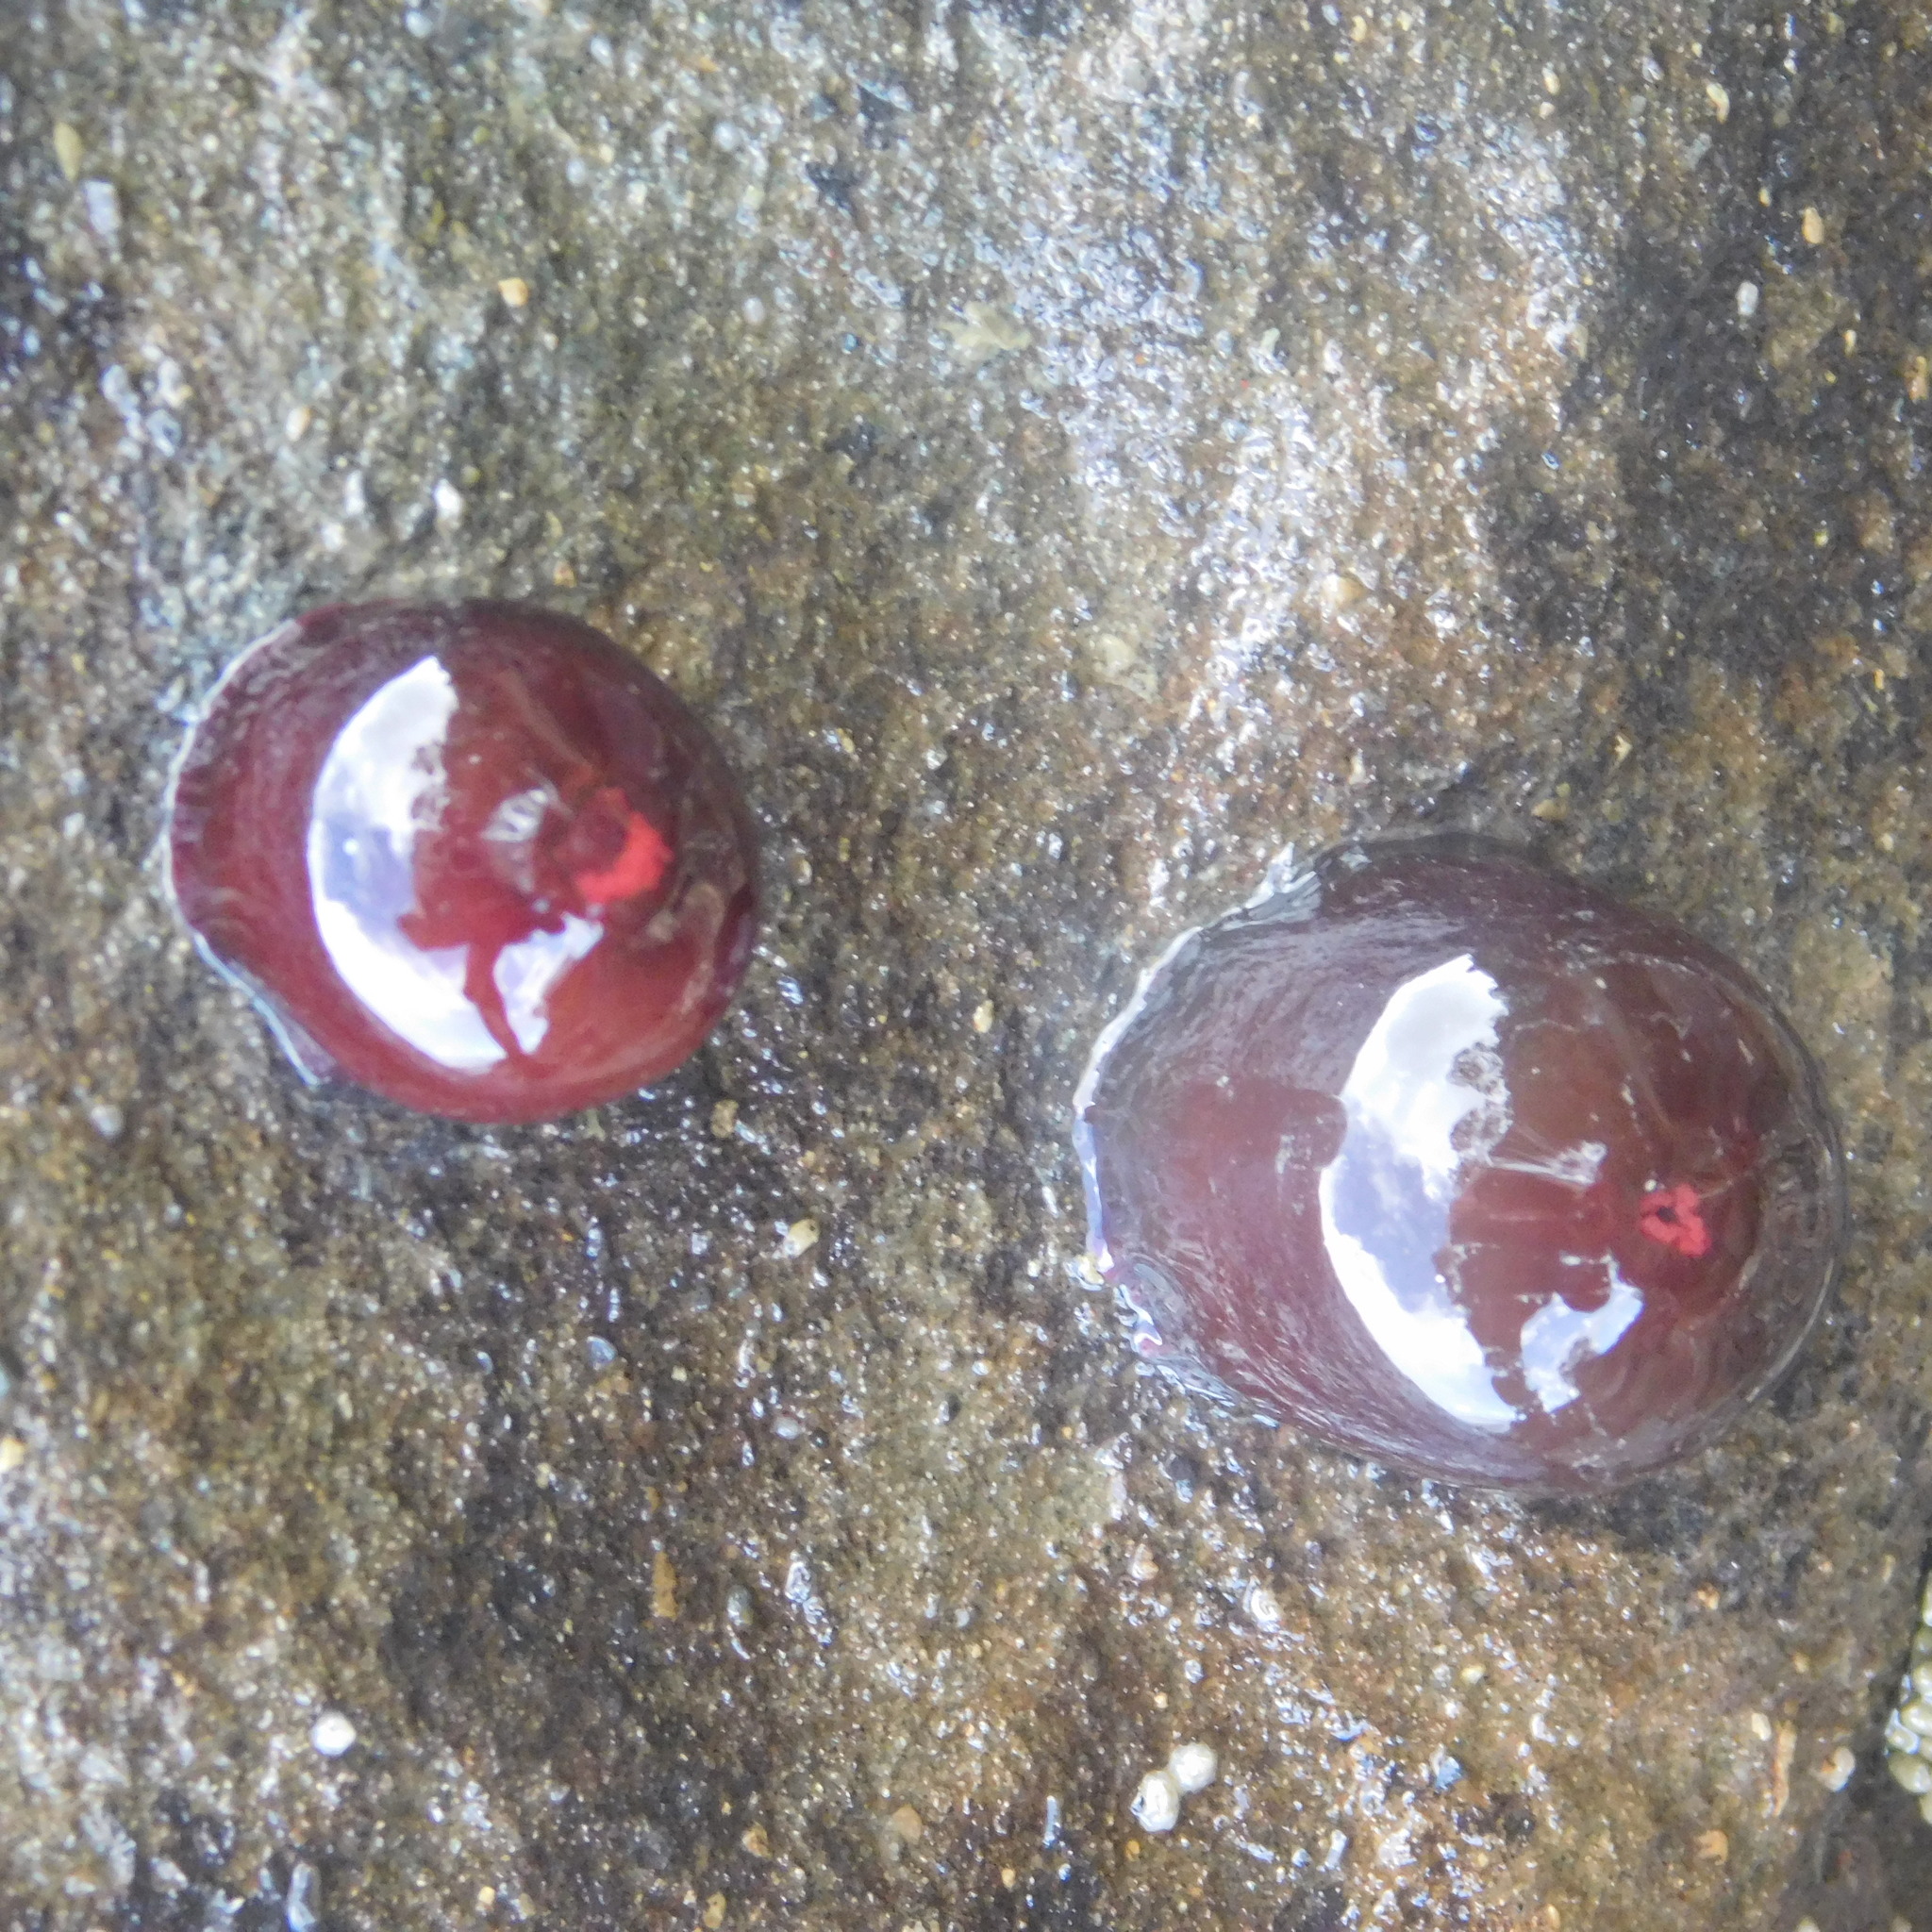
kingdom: Animalia
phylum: Cnidaria
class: Anthozoa
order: Actiniaria
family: Actiniidae
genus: Actinia
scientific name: Actinia tenebrosa
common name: Waratah anemone
